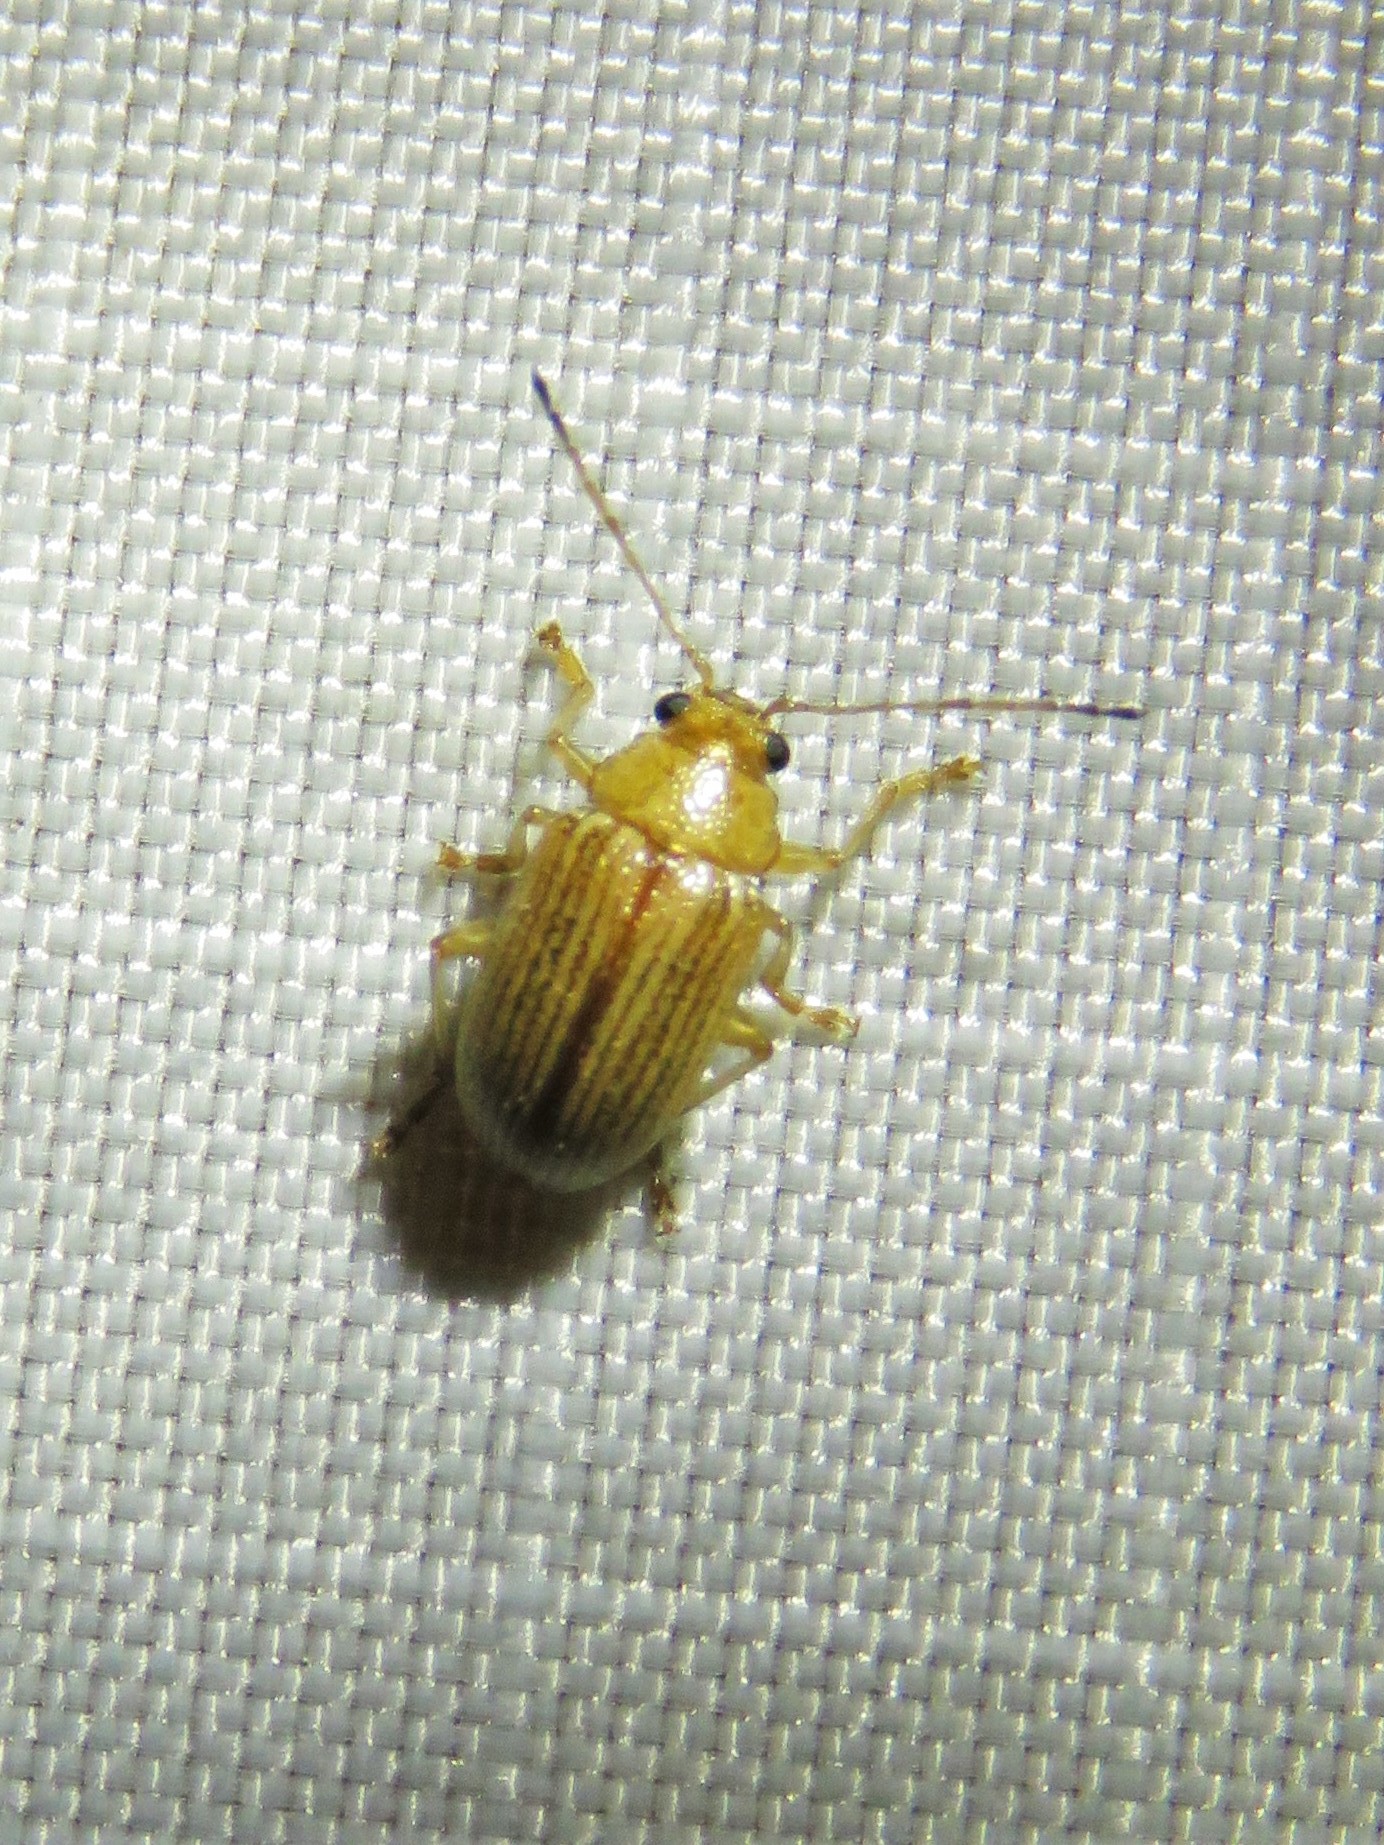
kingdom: Animalia
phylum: Arthropoda
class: Insecta
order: Coleoptera
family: Chrysomelidae
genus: Colaspis
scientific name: Colaspis brunnea
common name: Grape colaspis
